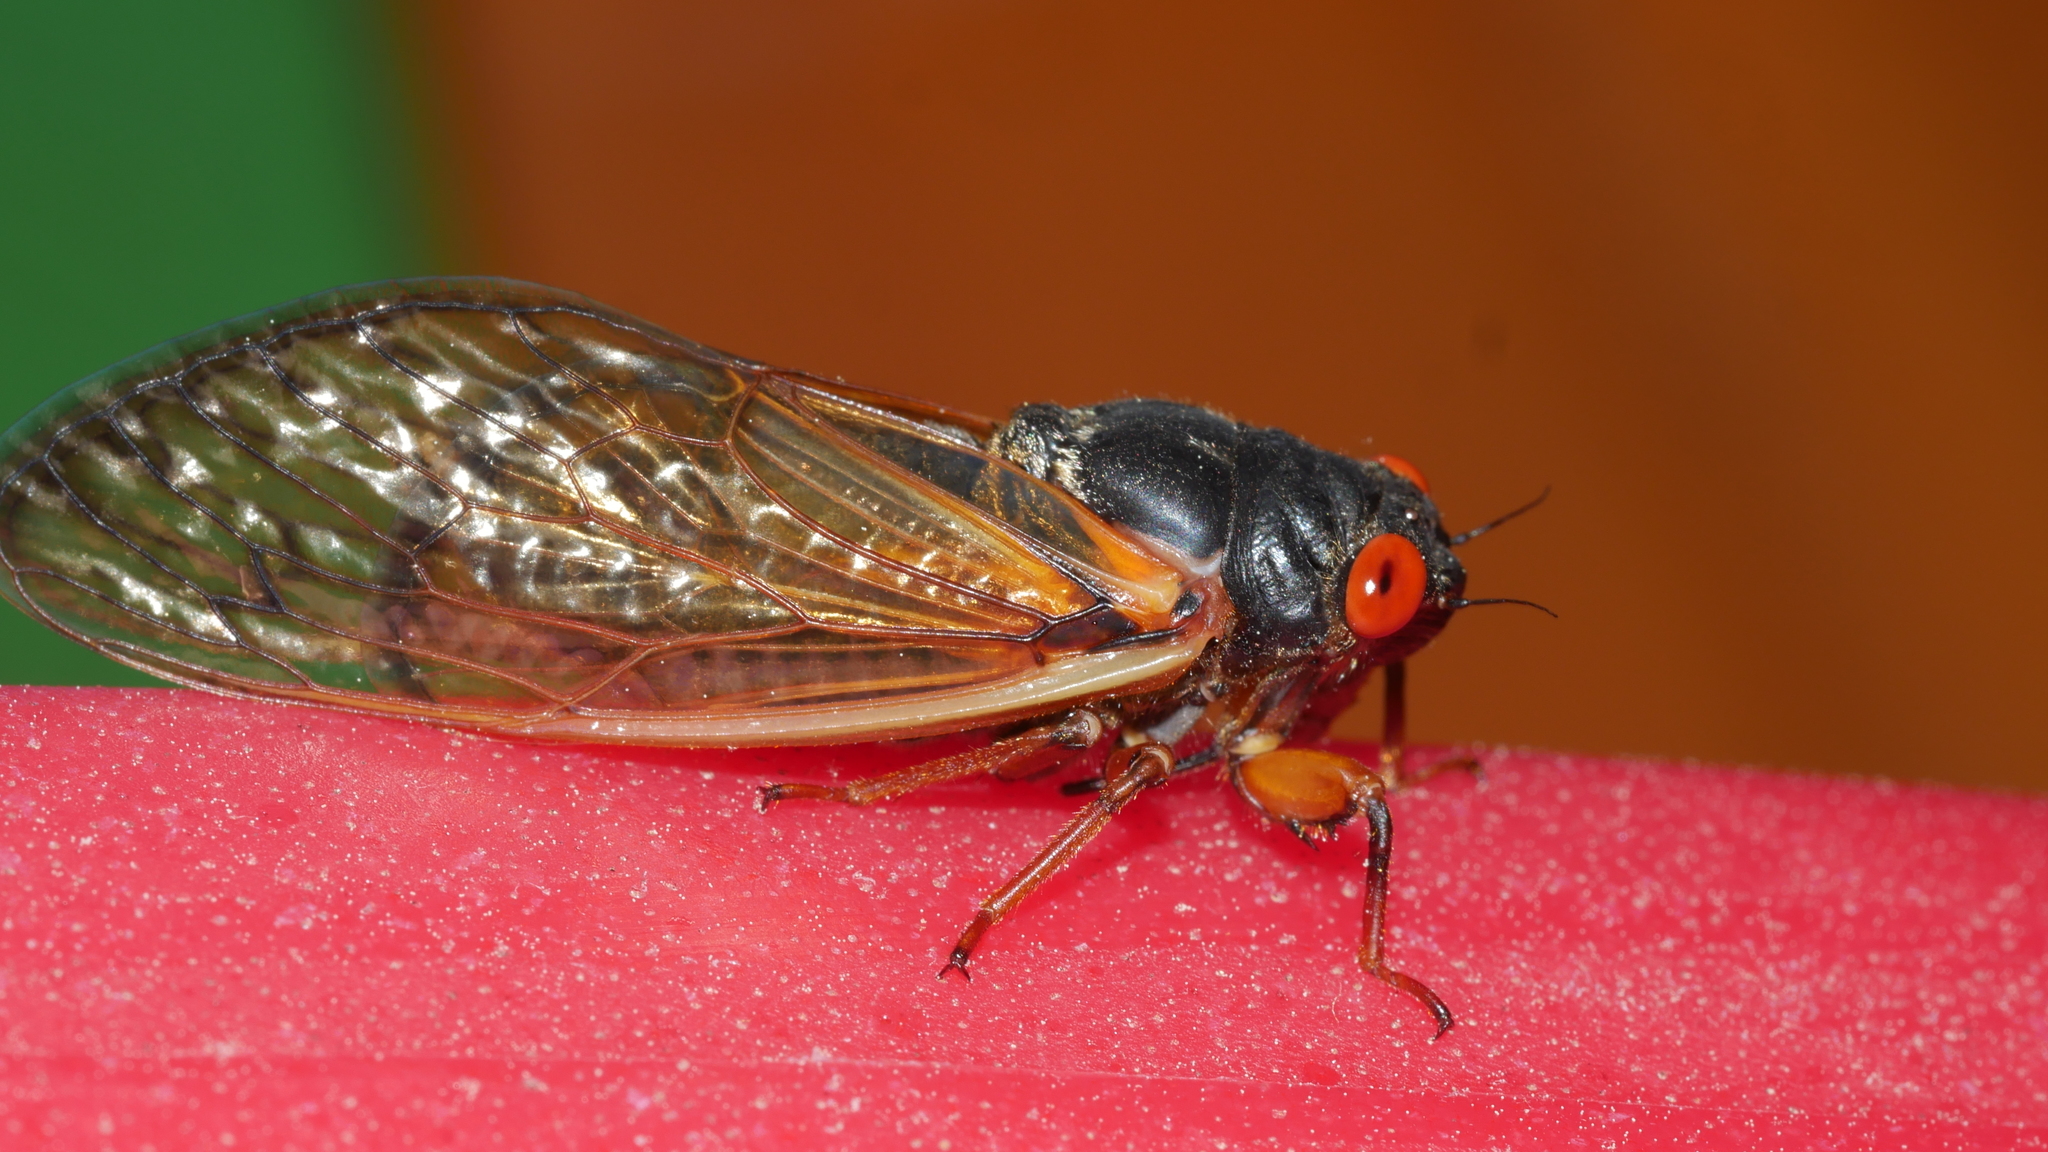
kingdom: Animalia
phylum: Arthropoda
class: Insecta
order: Hemiptera
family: Cicadidae
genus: Magicicada
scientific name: Magicicada septendecula
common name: Decula periodical cicada
